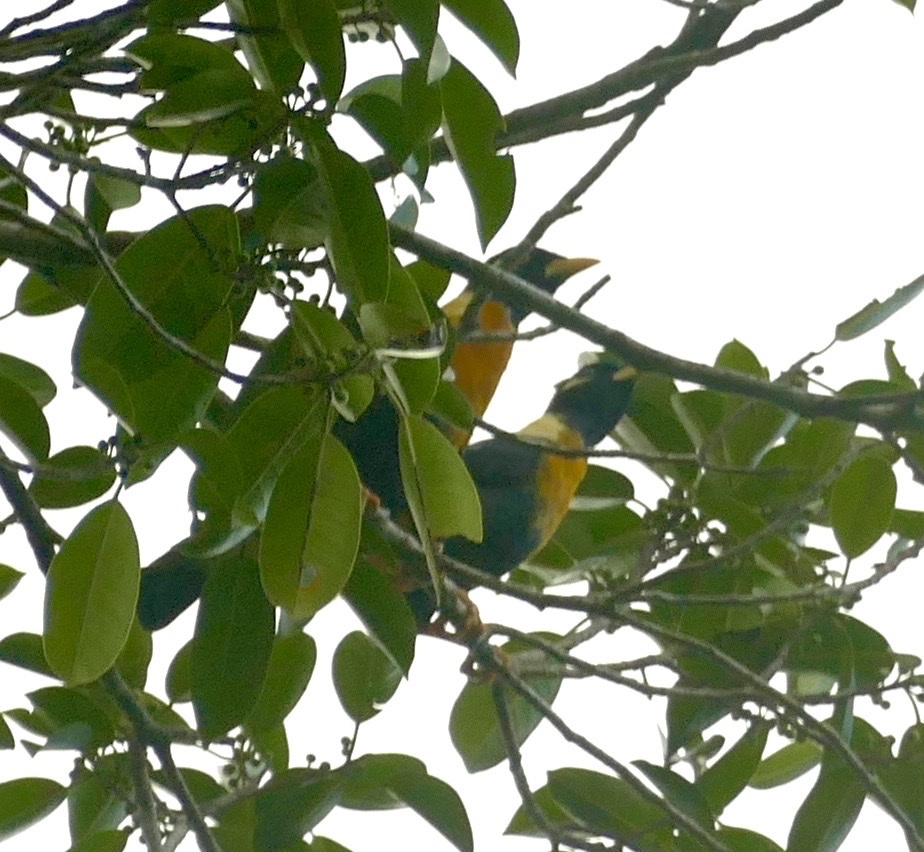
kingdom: Animalia
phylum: Chordata
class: Aves
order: Passeriformes
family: Sturnidae
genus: Mino
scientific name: Mino anais
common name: Golden myna
